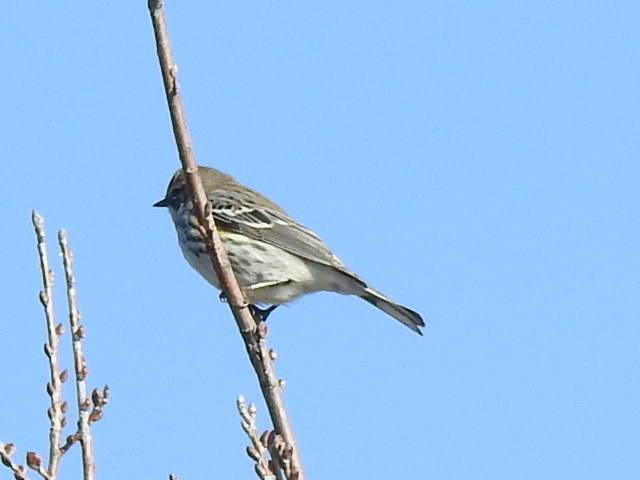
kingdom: Animalia
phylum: Chordata
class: Aves
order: Passeriformes
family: Parulidae
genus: Setophaga
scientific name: Setophaga coronata
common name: Myrtle warbler
